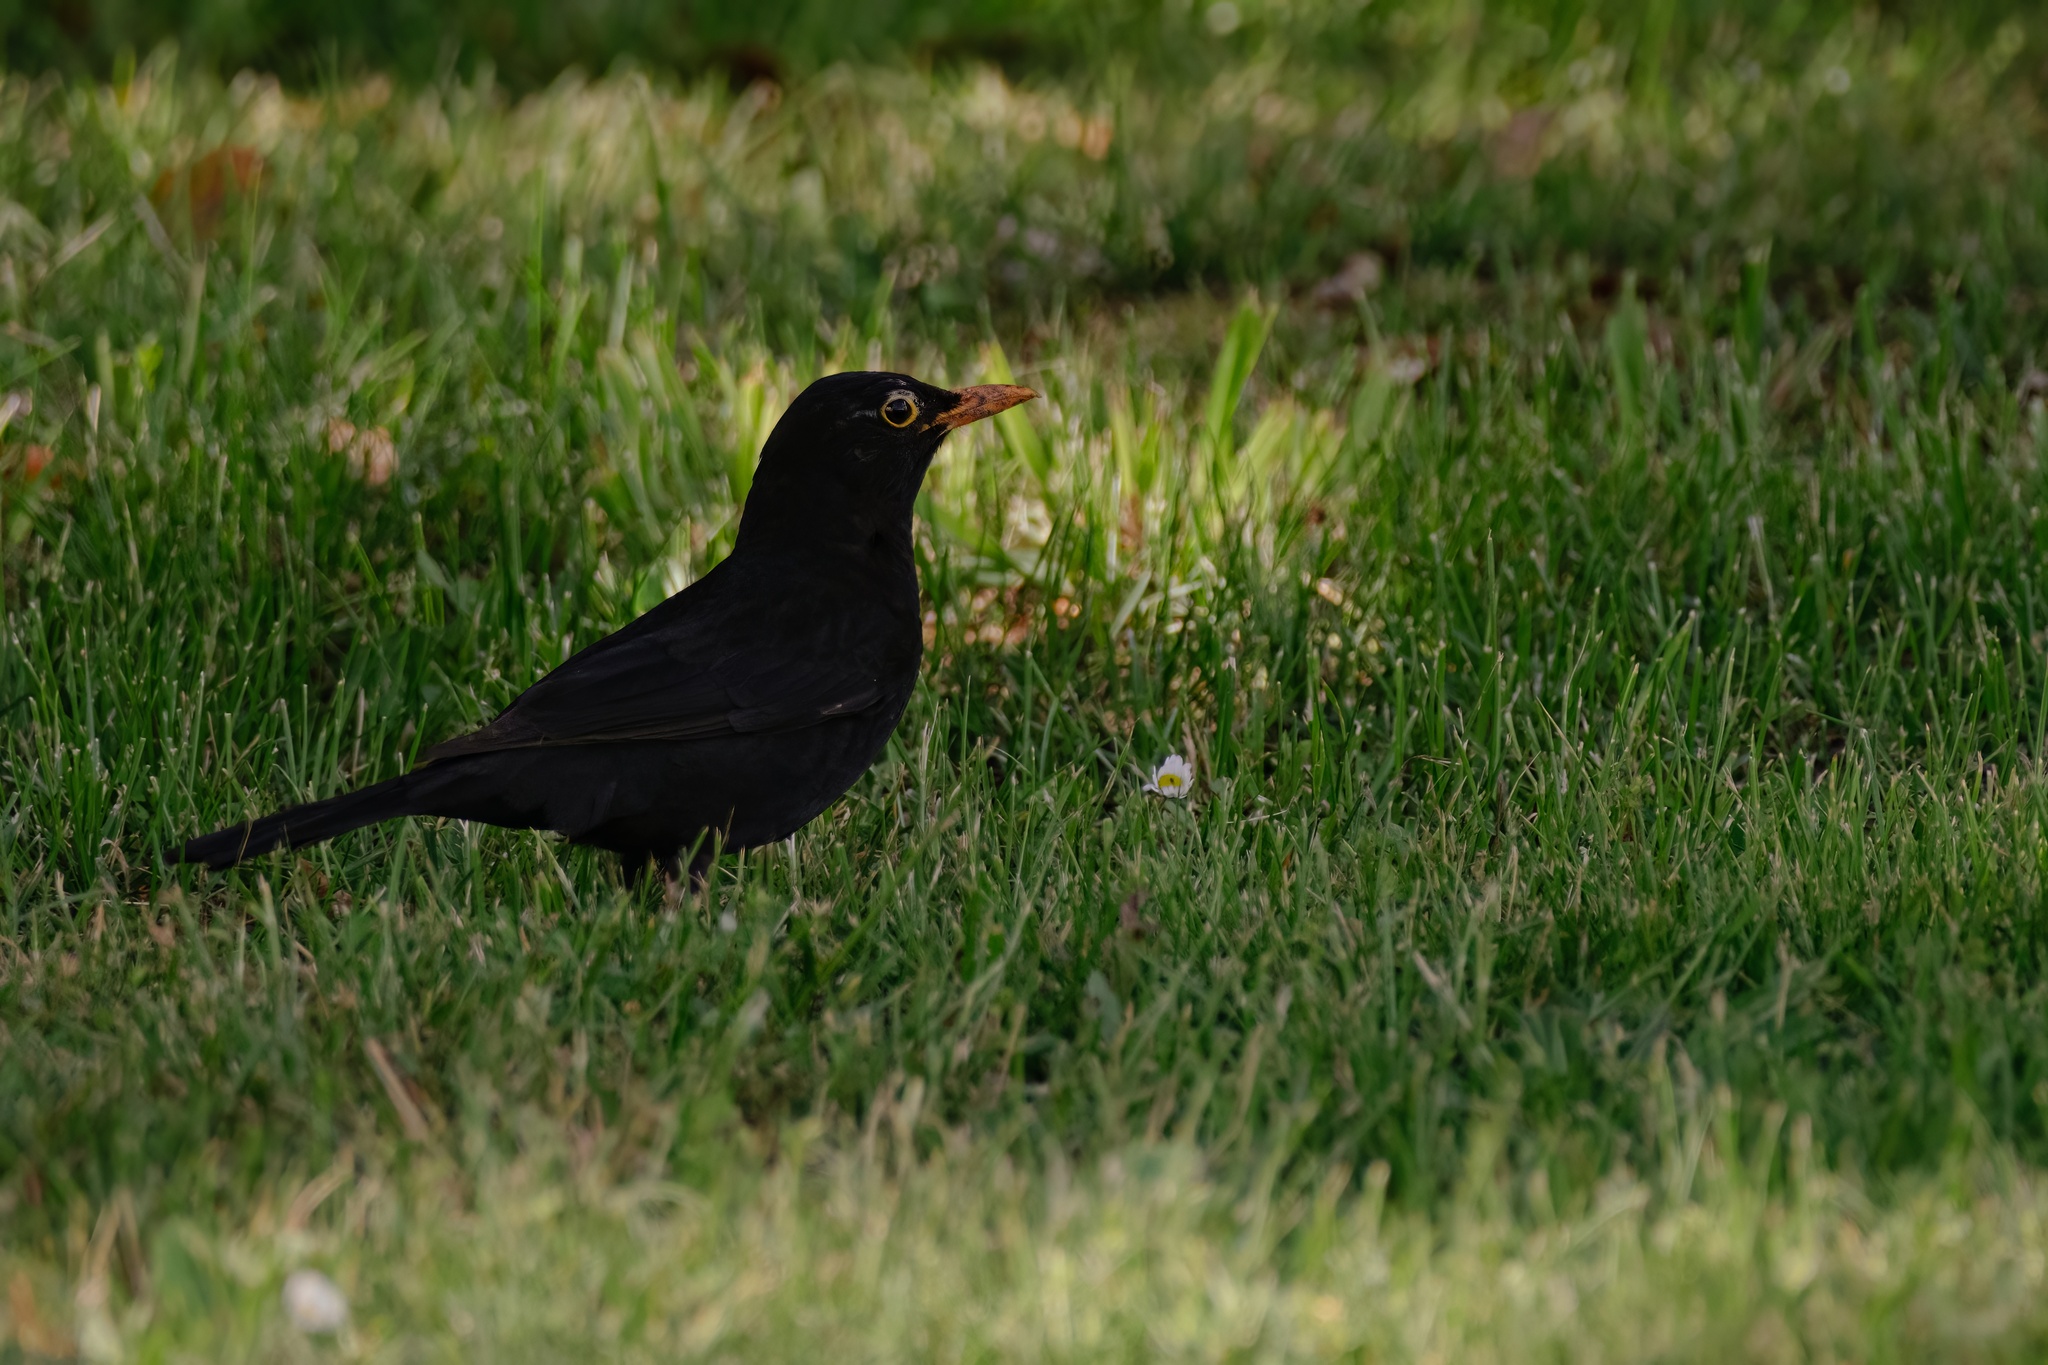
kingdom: Animalia
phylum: Chordata
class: Aves
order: Passeriformes
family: Turdidae
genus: Turdus
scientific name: Turdus merula
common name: Common blackbird
